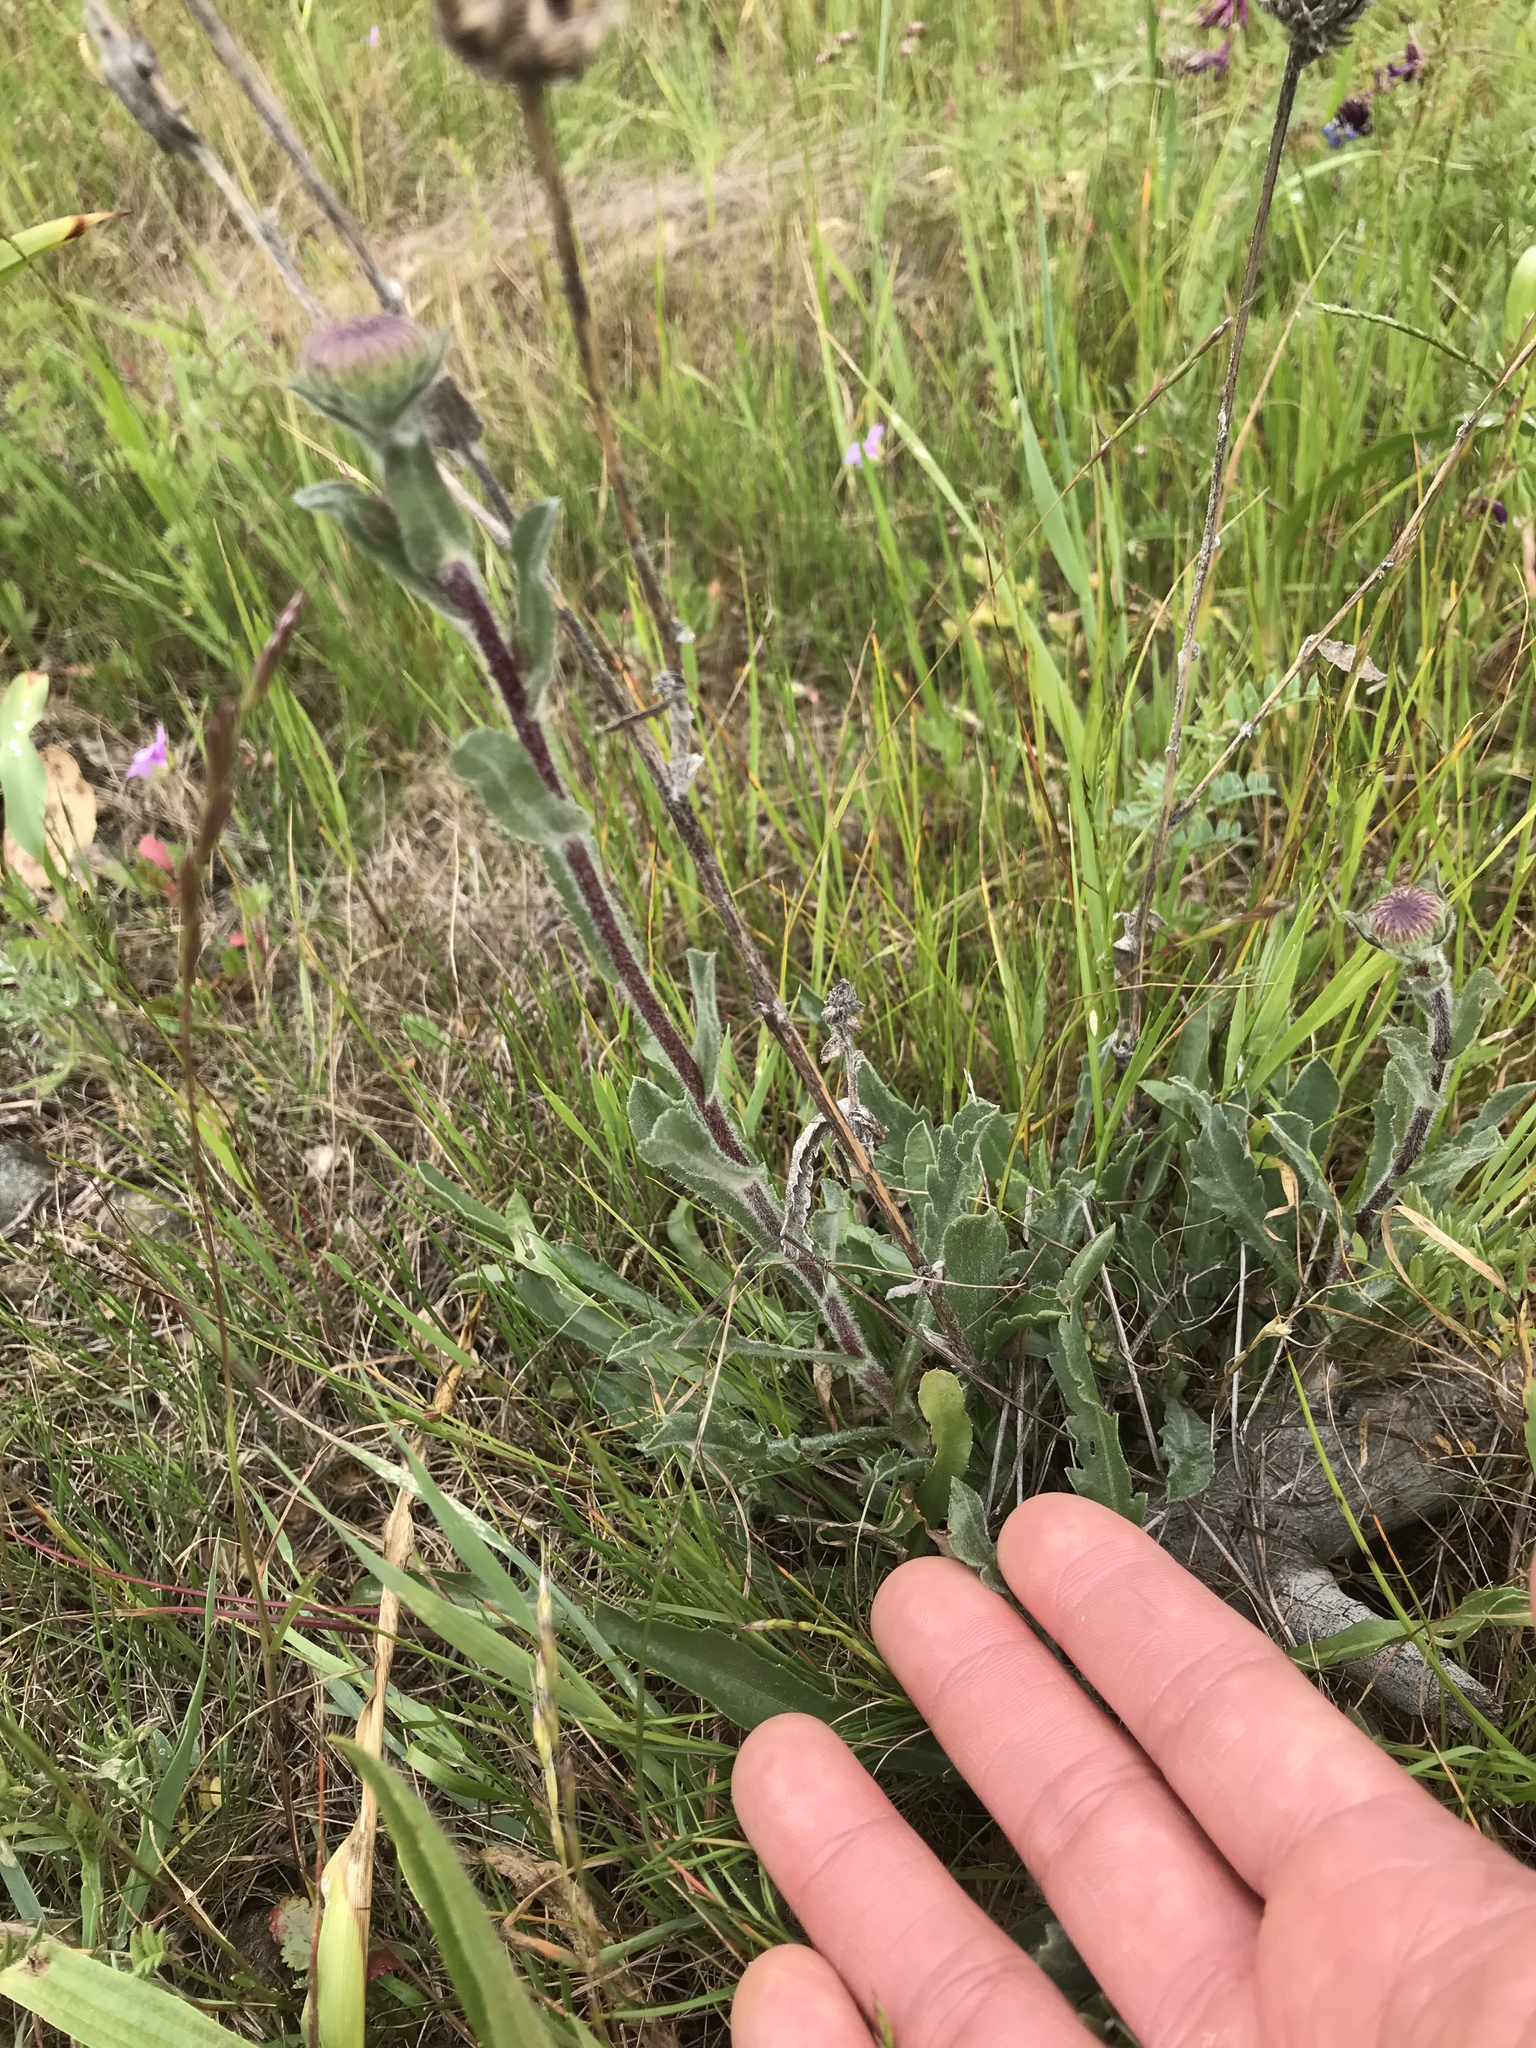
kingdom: Plantae
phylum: Tracheophyta
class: Magnoliopsida
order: Asterales
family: Asteraceae
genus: Grindelia
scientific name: Grindelia hirsutula
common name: Hairy gumweed
